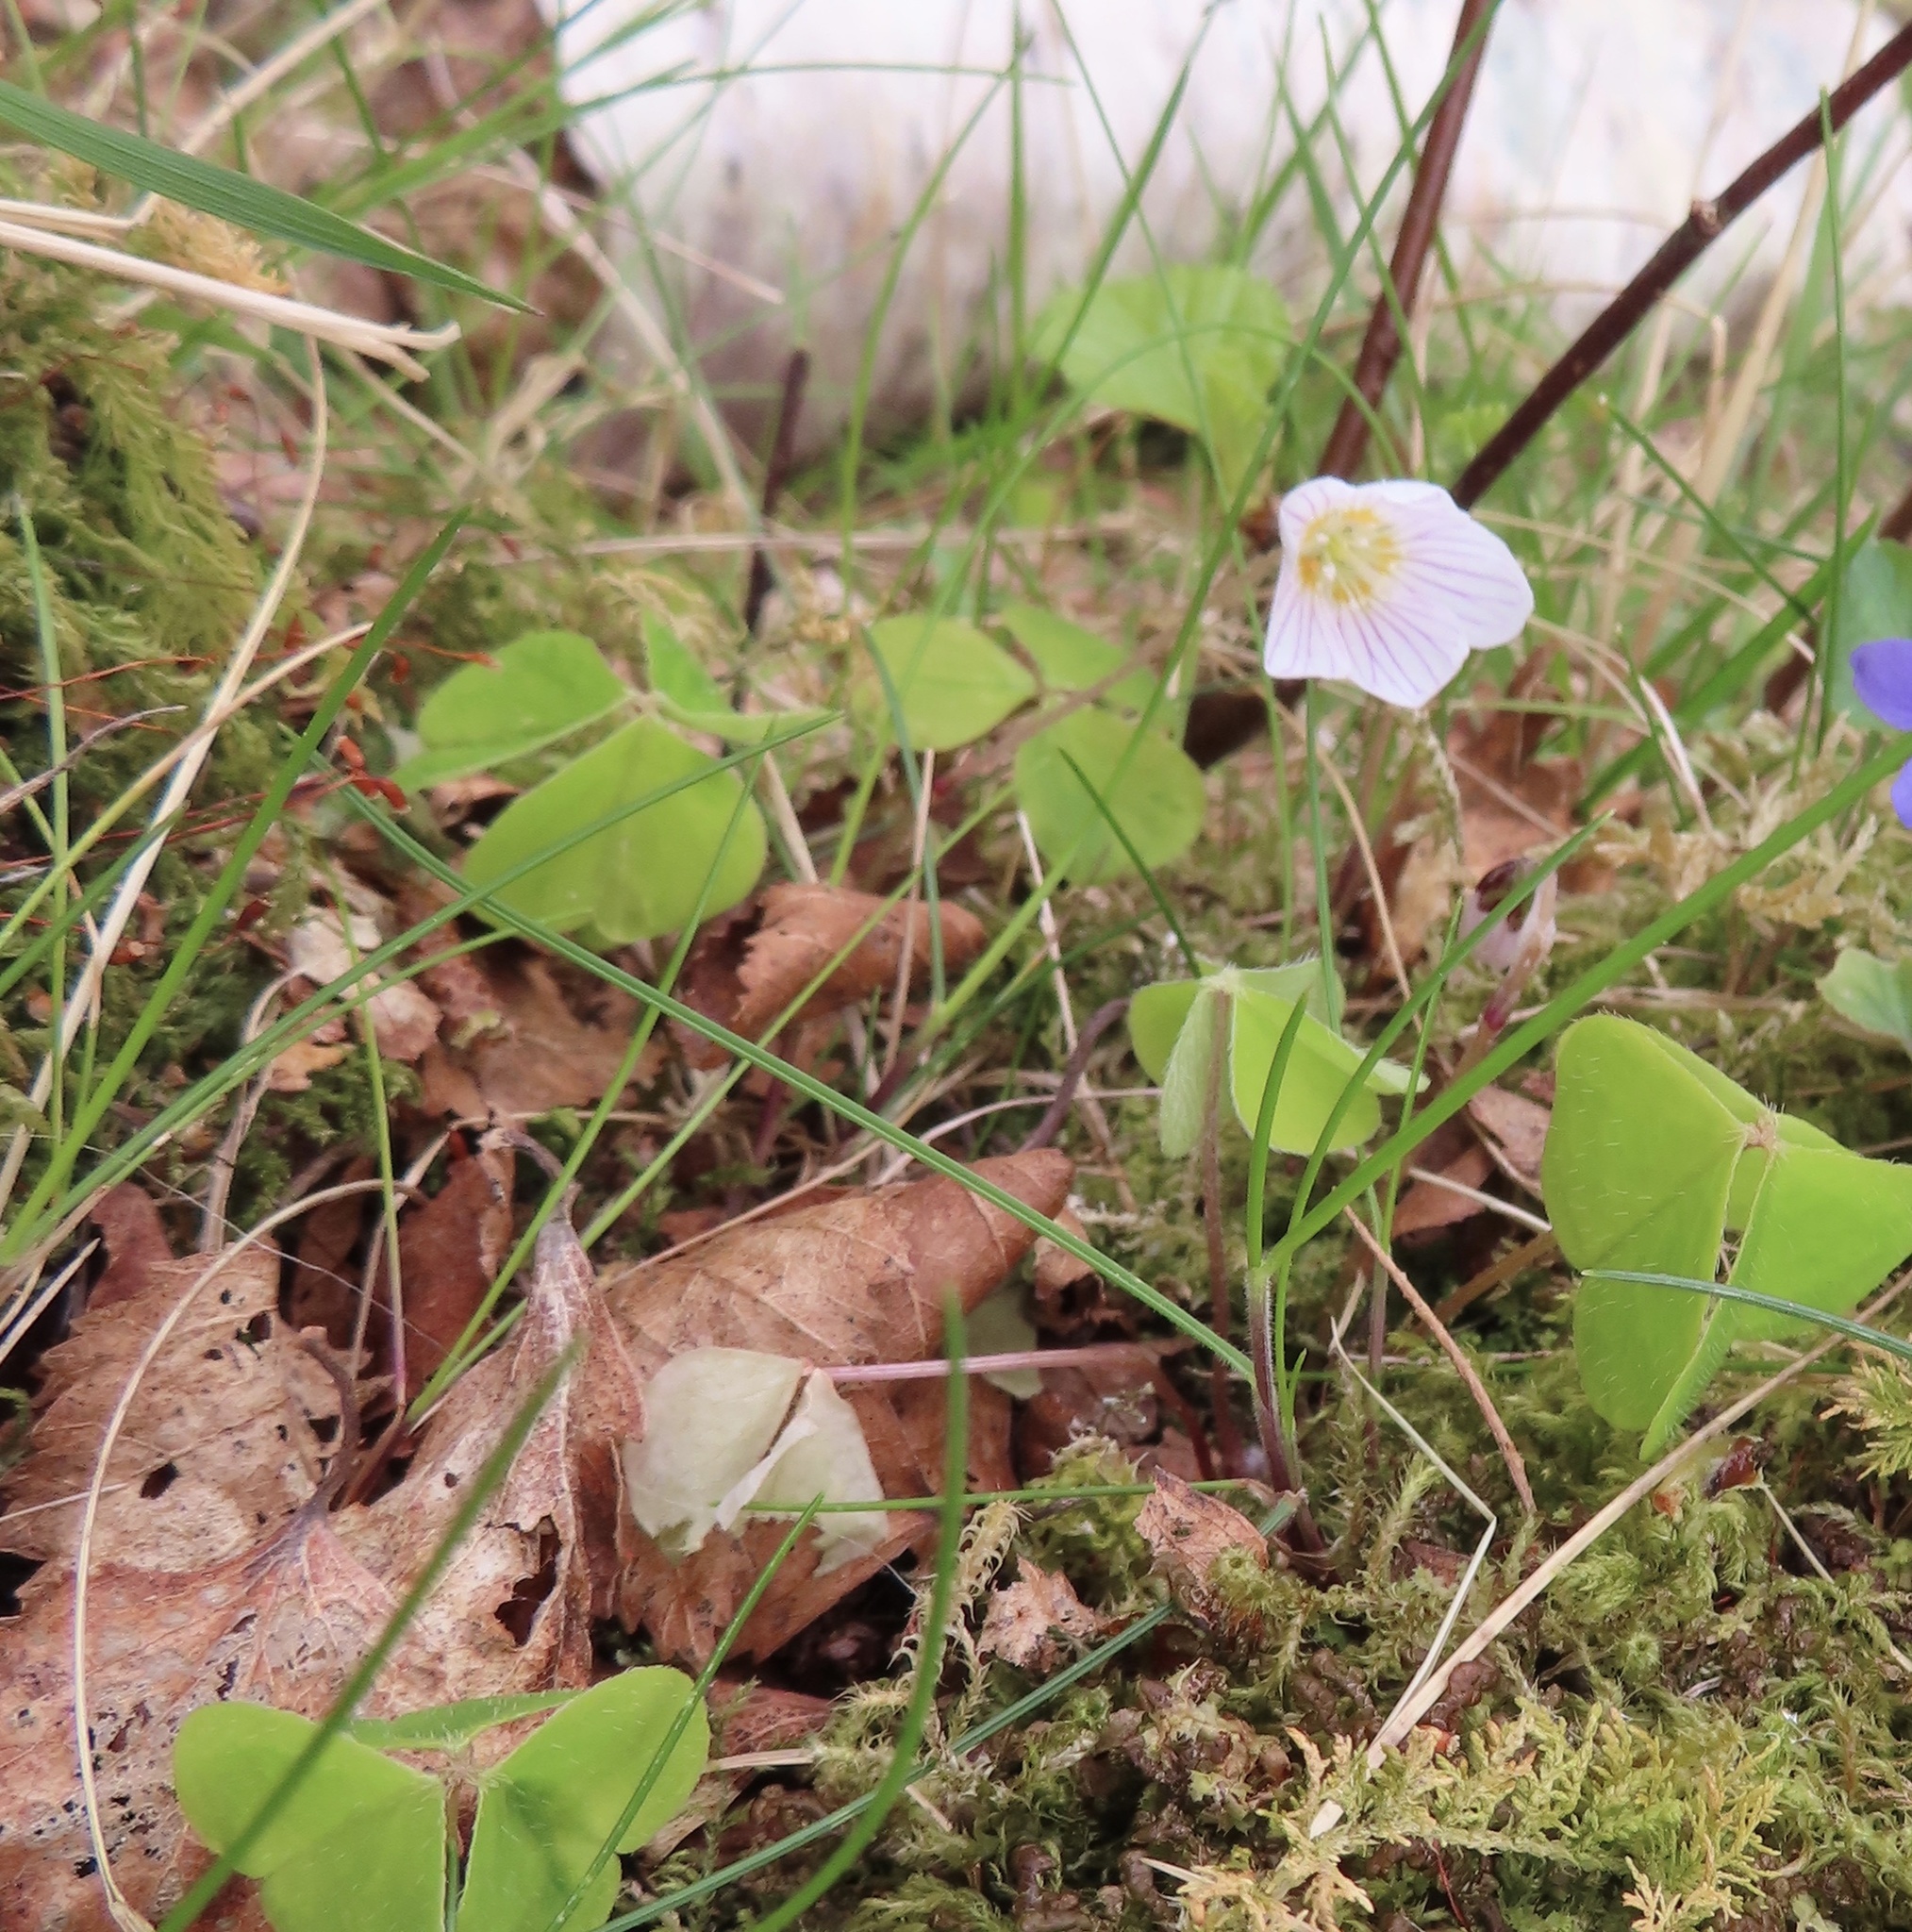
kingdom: Plantae
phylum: Tracheophyta
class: Magnoliopsida
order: Oxalidales
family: Oxalidaceae
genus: Oxalis
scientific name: Oxalis acetosella
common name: Wood-sorrel
